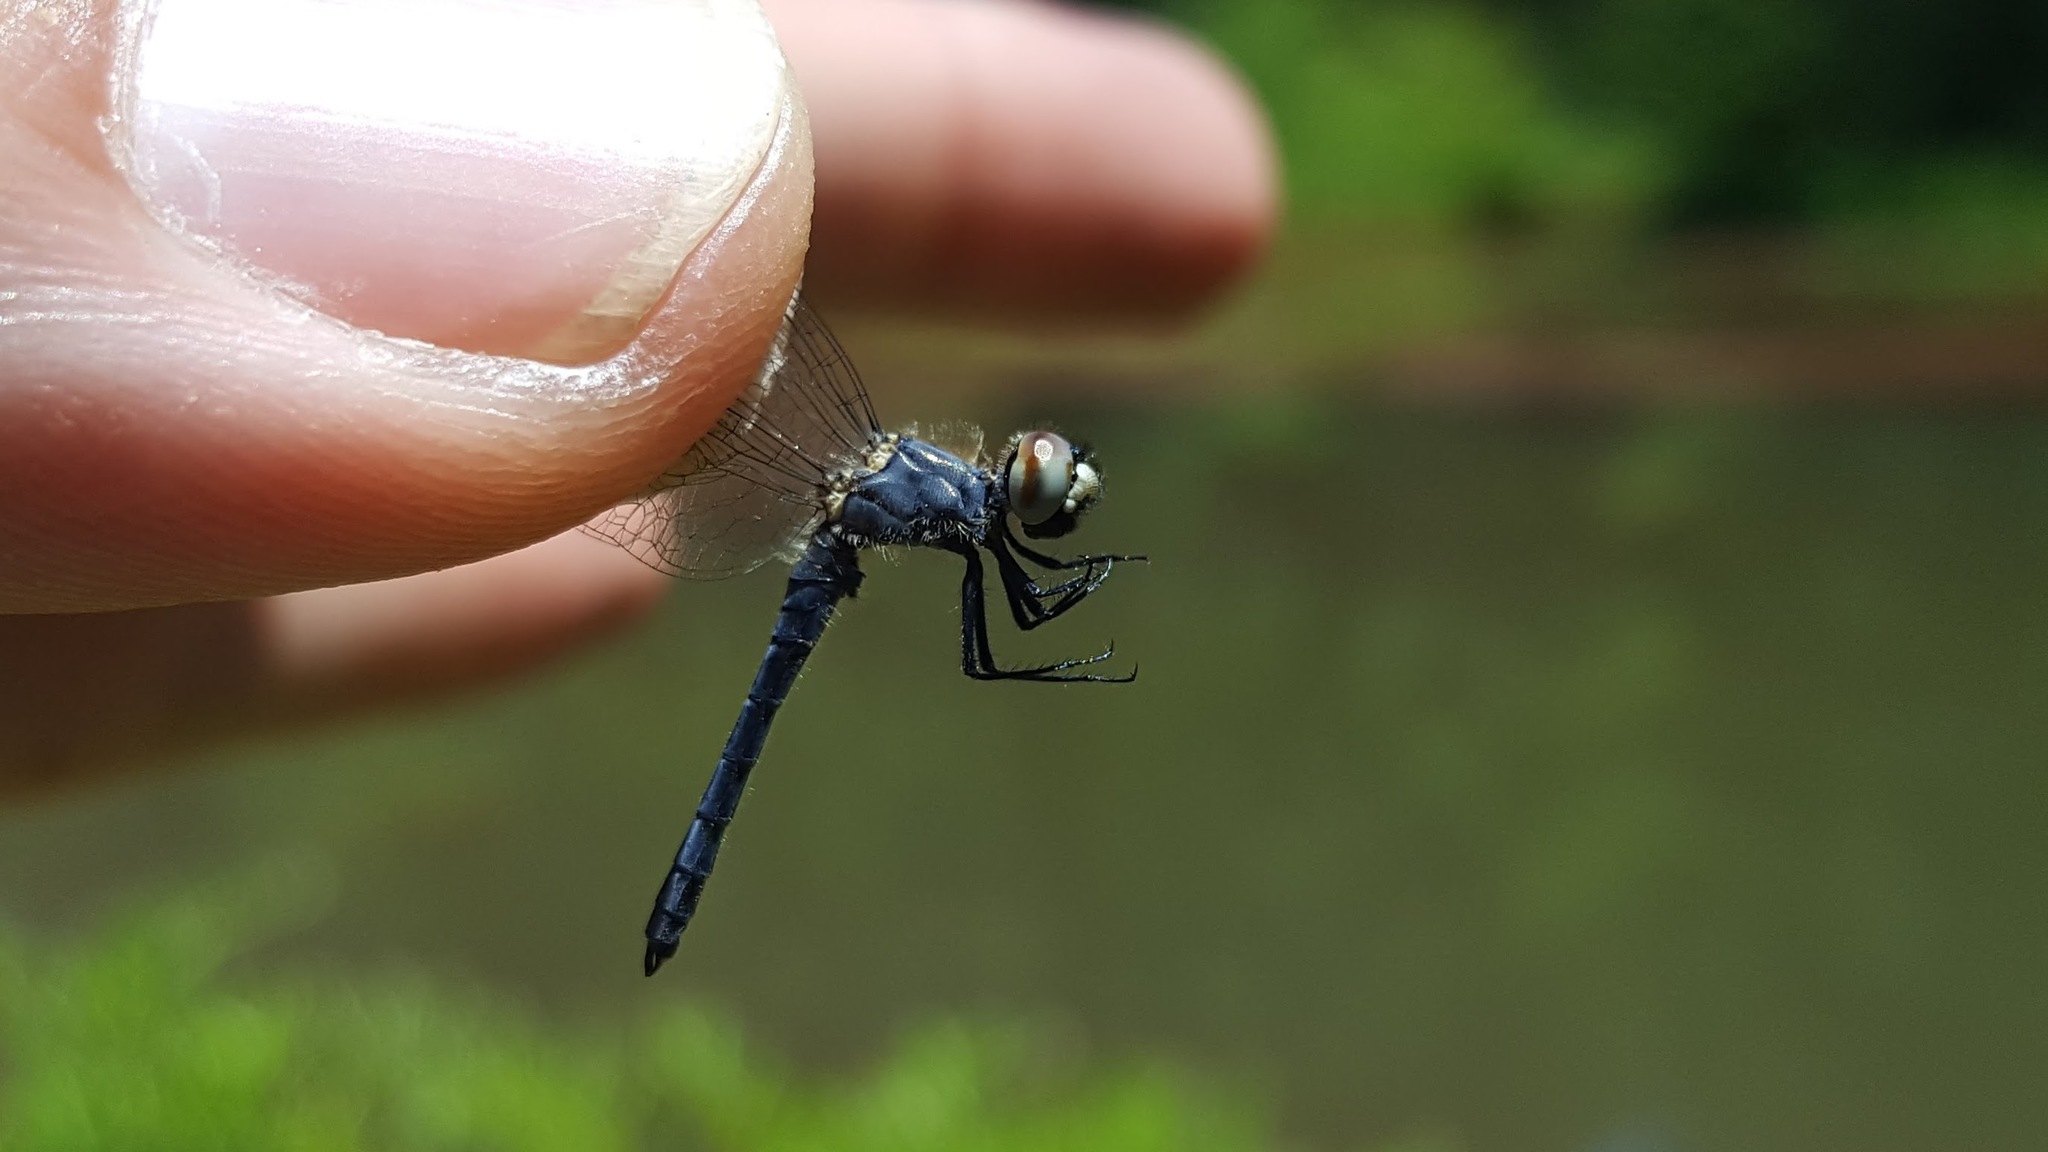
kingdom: Animalia
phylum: Arthropoda
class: Insecta
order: Odonata
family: Libellulidae
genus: Nannothemis
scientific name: Nannothemis bella
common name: Elfin skimmer
